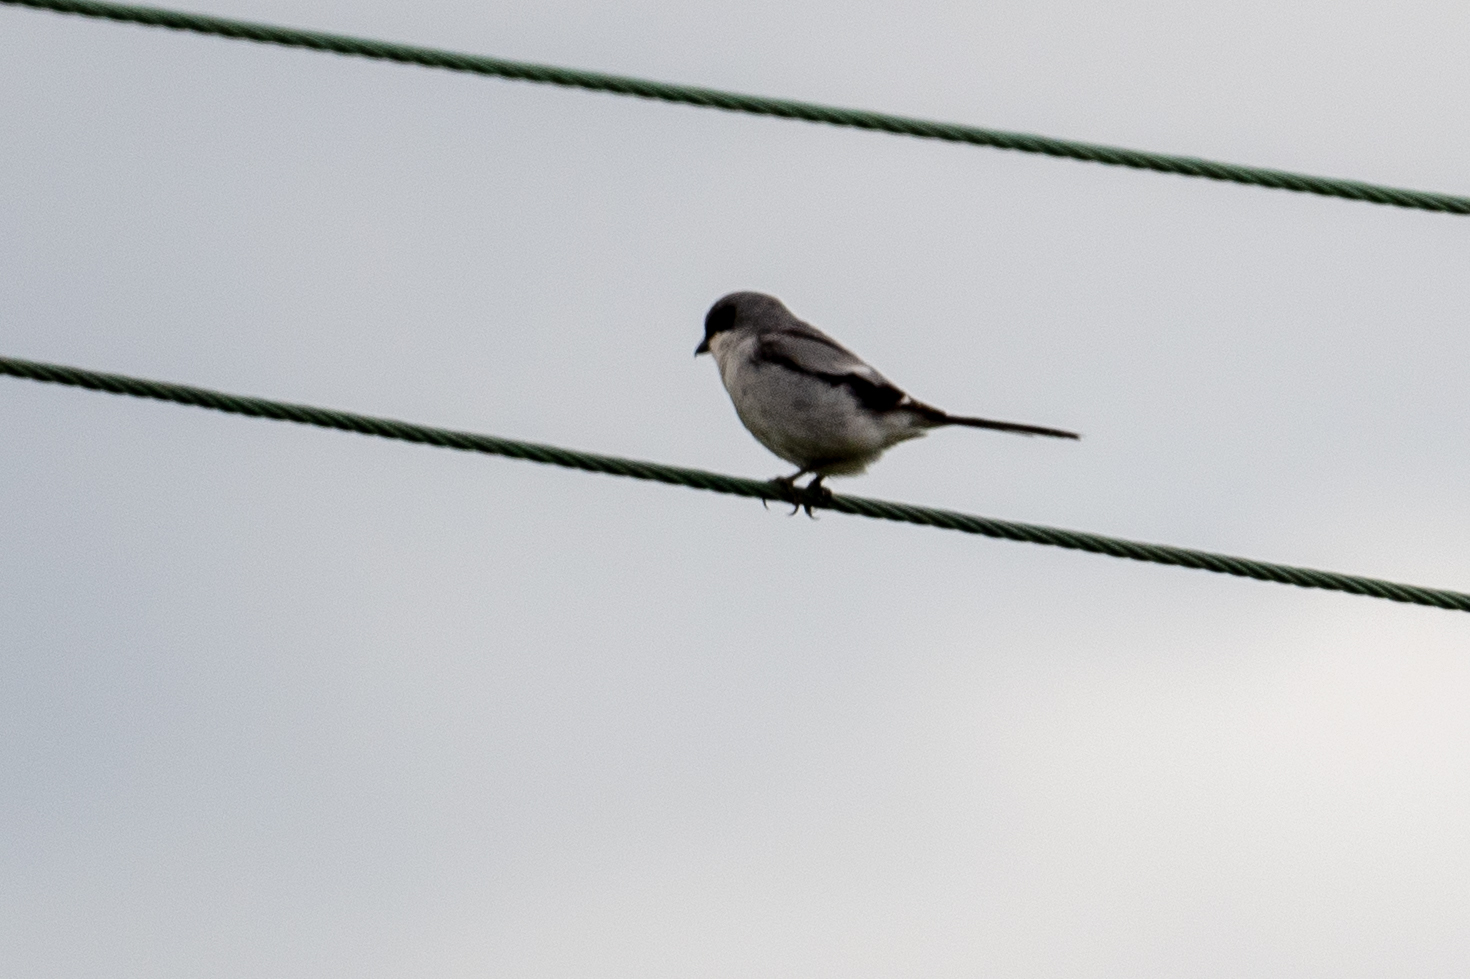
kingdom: Animalia
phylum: Chordata
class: Aves
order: Passeriformes
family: Laniidae
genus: Lanius
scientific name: Lanius ludovicianus
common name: Loggerhead shrike
